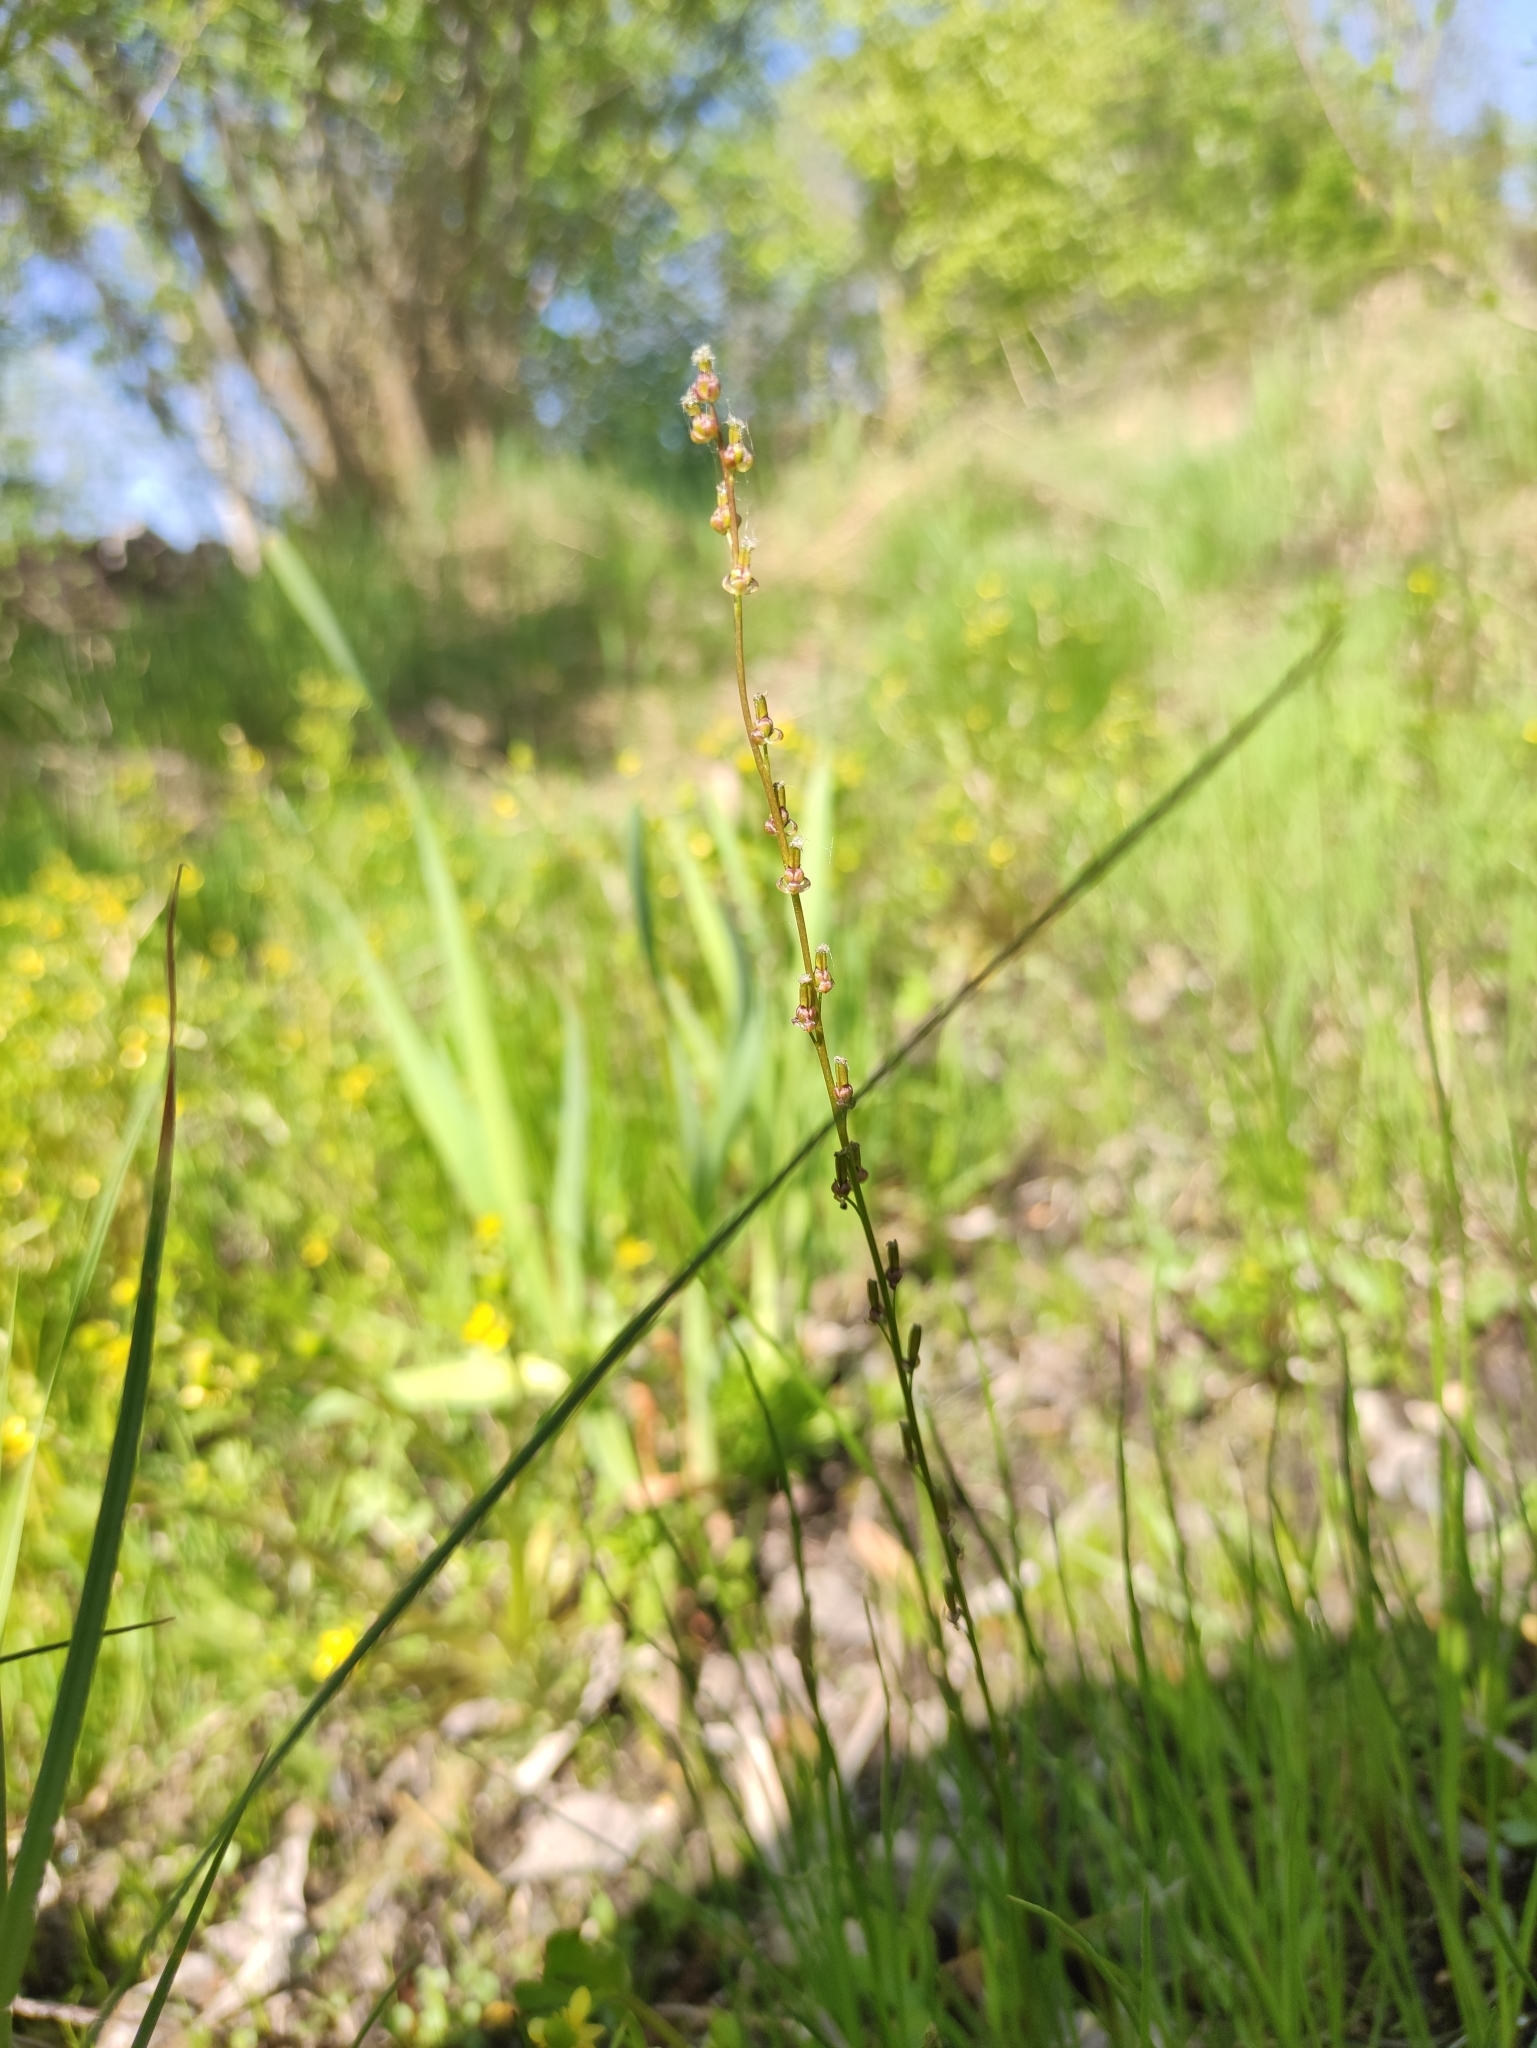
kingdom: Plantae
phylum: Tracheophyta
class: Liliopsida
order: Alismatales
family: Juncaginaceae
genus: Triglochin
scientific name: Triglochin palustris
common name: Marsh arrowgrass
